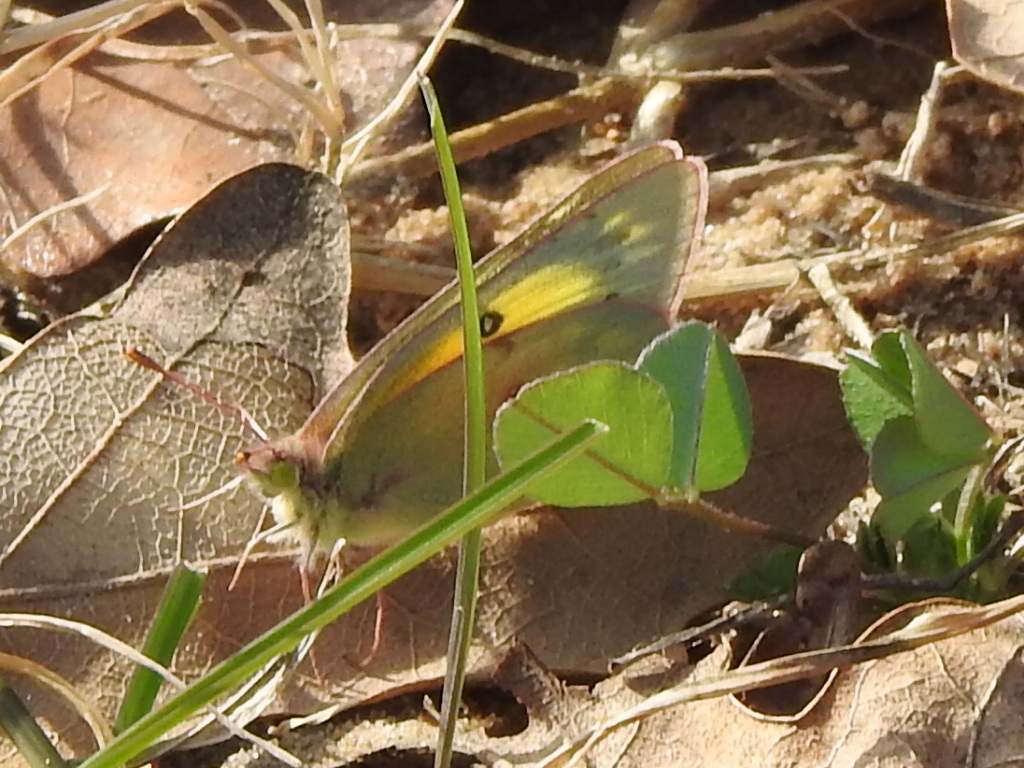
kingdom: Animalia
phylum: Arthropoda
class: Insecta
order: Lepidoptera
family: Pieridae
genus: Colias
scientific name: Colias eurytheme
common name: Alfalfa butterfly
